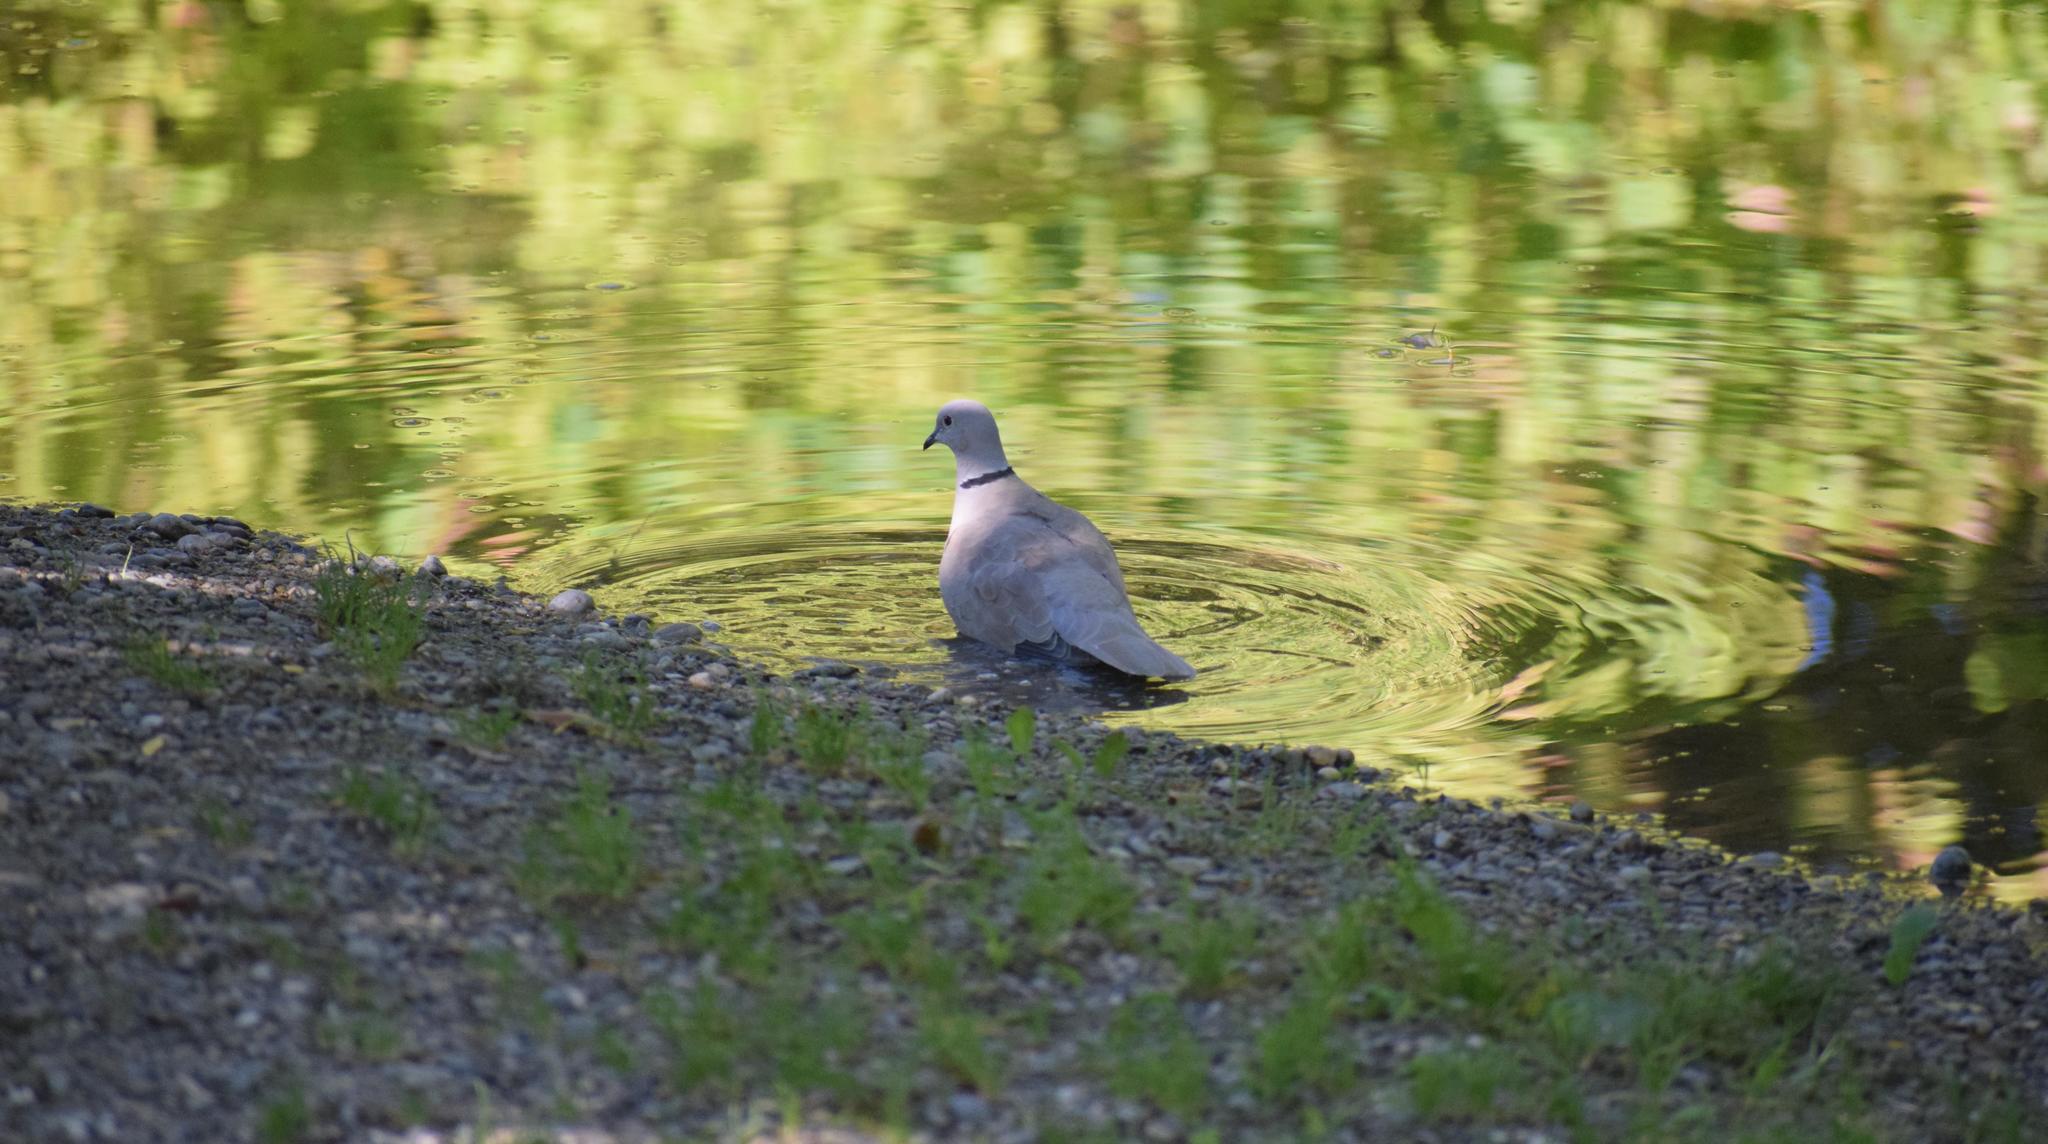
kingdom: Animalia
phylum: Chordata
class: Aves
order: Columbiformes
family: Columbidae
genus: Streptopelia
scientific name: Streptopelia decaocto
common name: Eurasian collared dove
